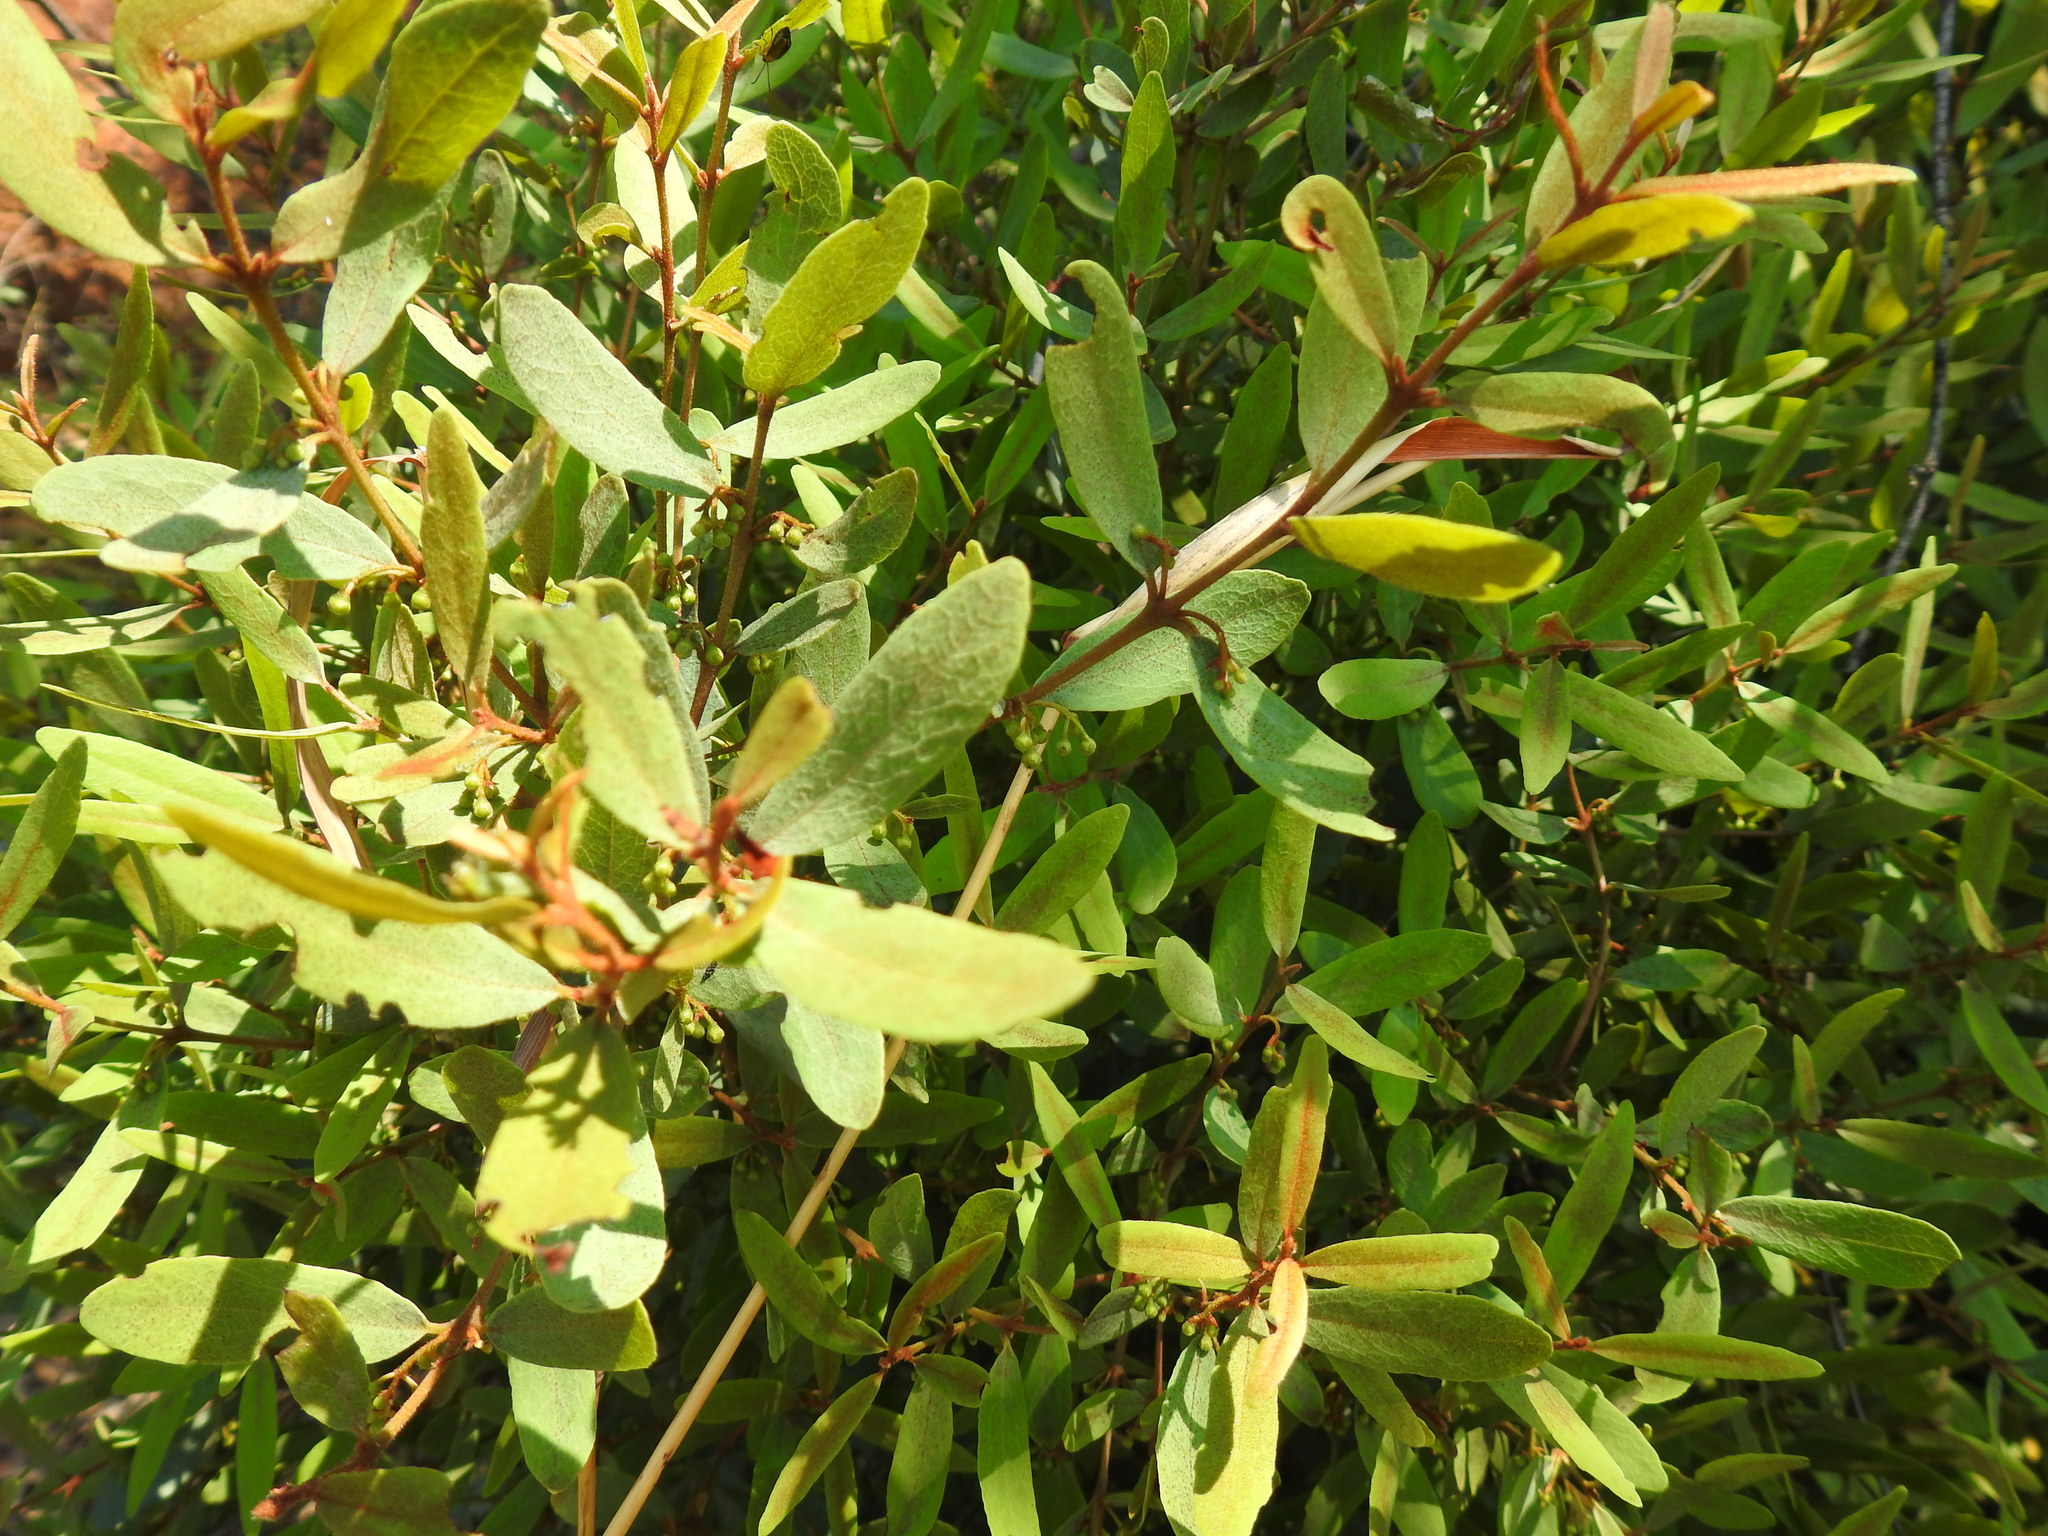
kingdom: Plantae
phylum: Tracheophyta
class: Magnoliopsida
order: Ericales
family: Ebenaceae
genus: Euclea
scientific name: Euclea crispa
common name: Blue guarri
